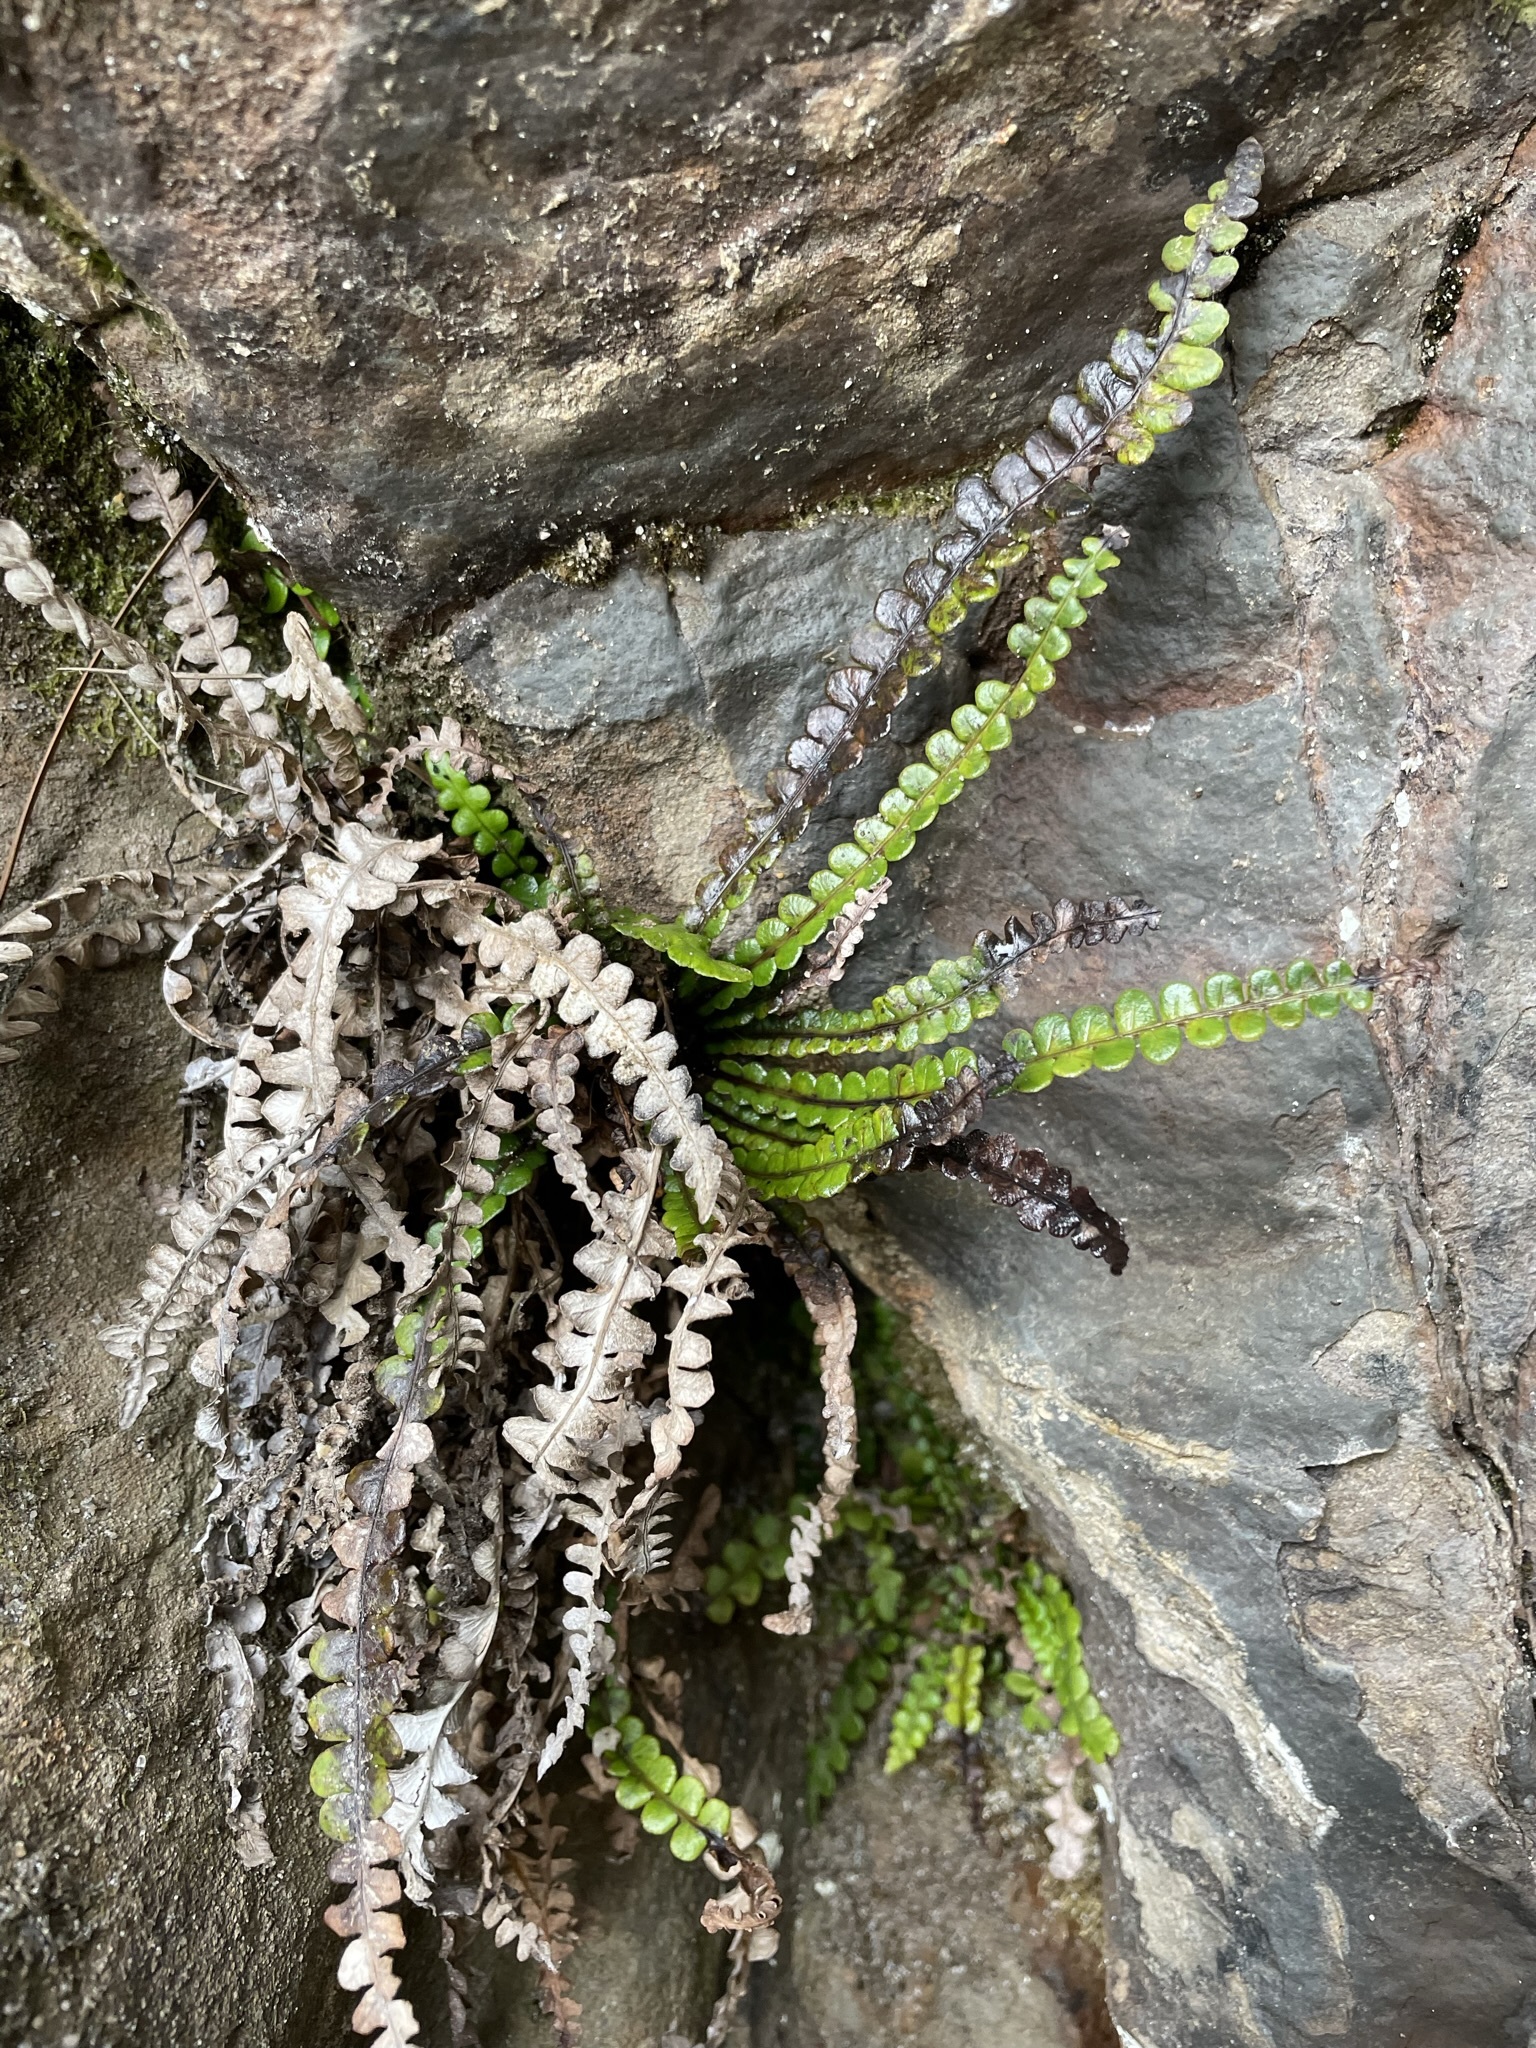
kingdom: Plantae
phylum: Tracheophyta
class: Polypodiopsida
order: Polypodiales
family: Blechnaceae
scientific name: Blechnaceae
